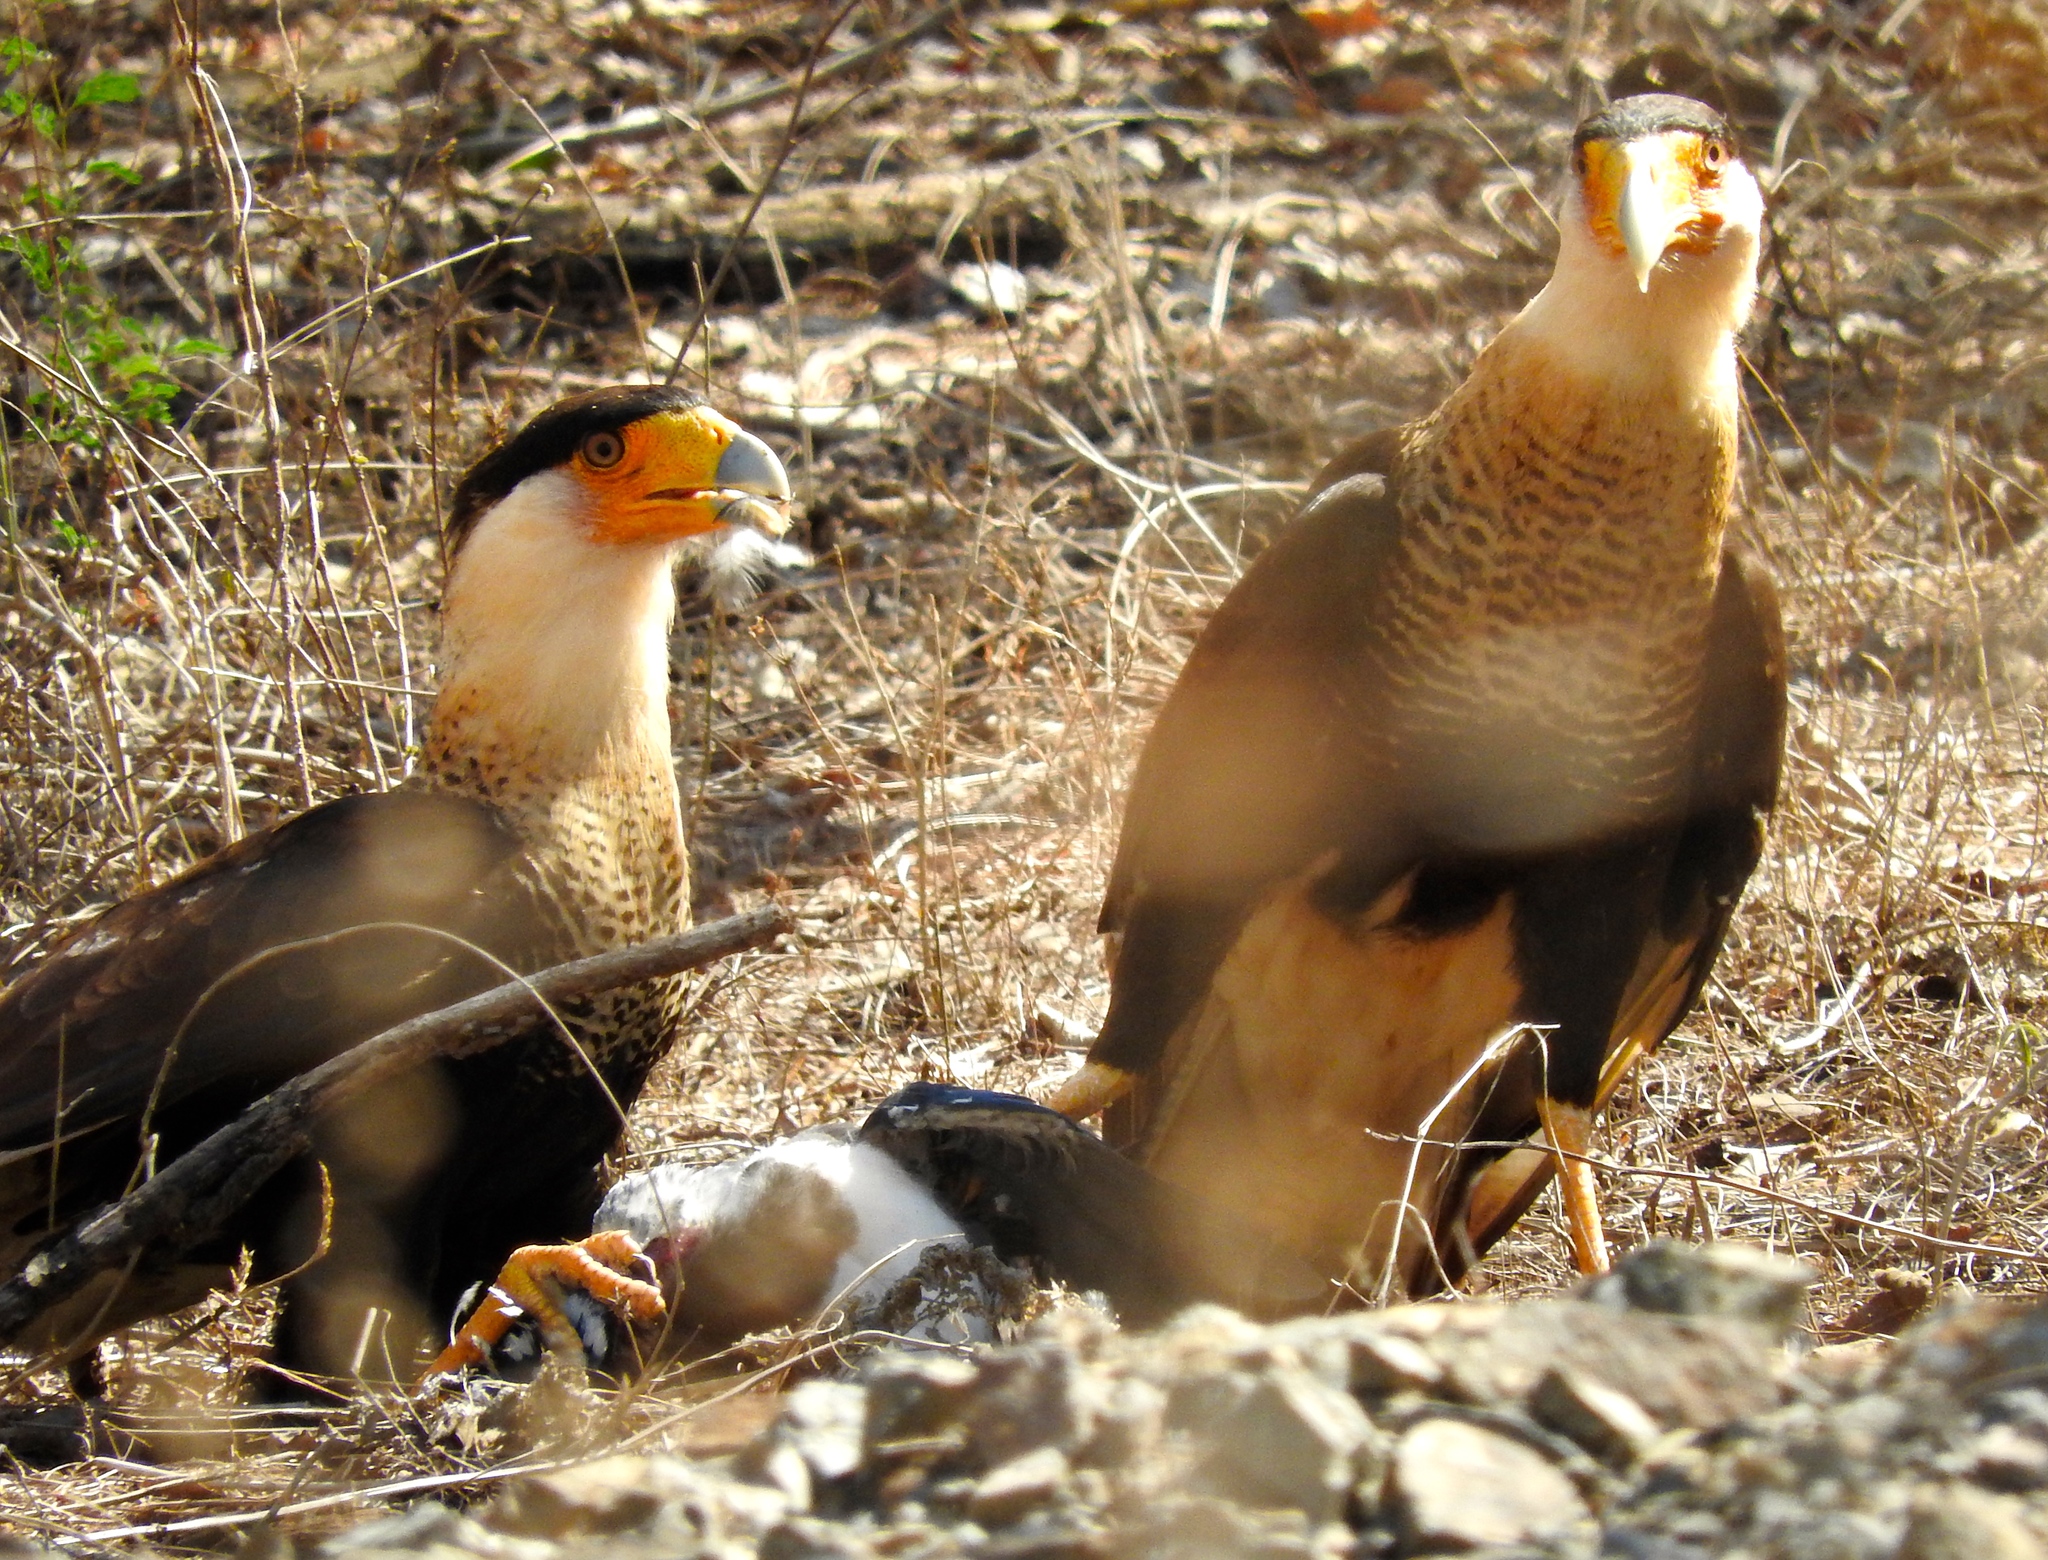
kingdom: Animalia
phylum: Chordata
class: Aves
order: Falconiformes
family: Falconidae
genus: Caracara
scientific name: Caracara plancus
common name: Southern caracara
